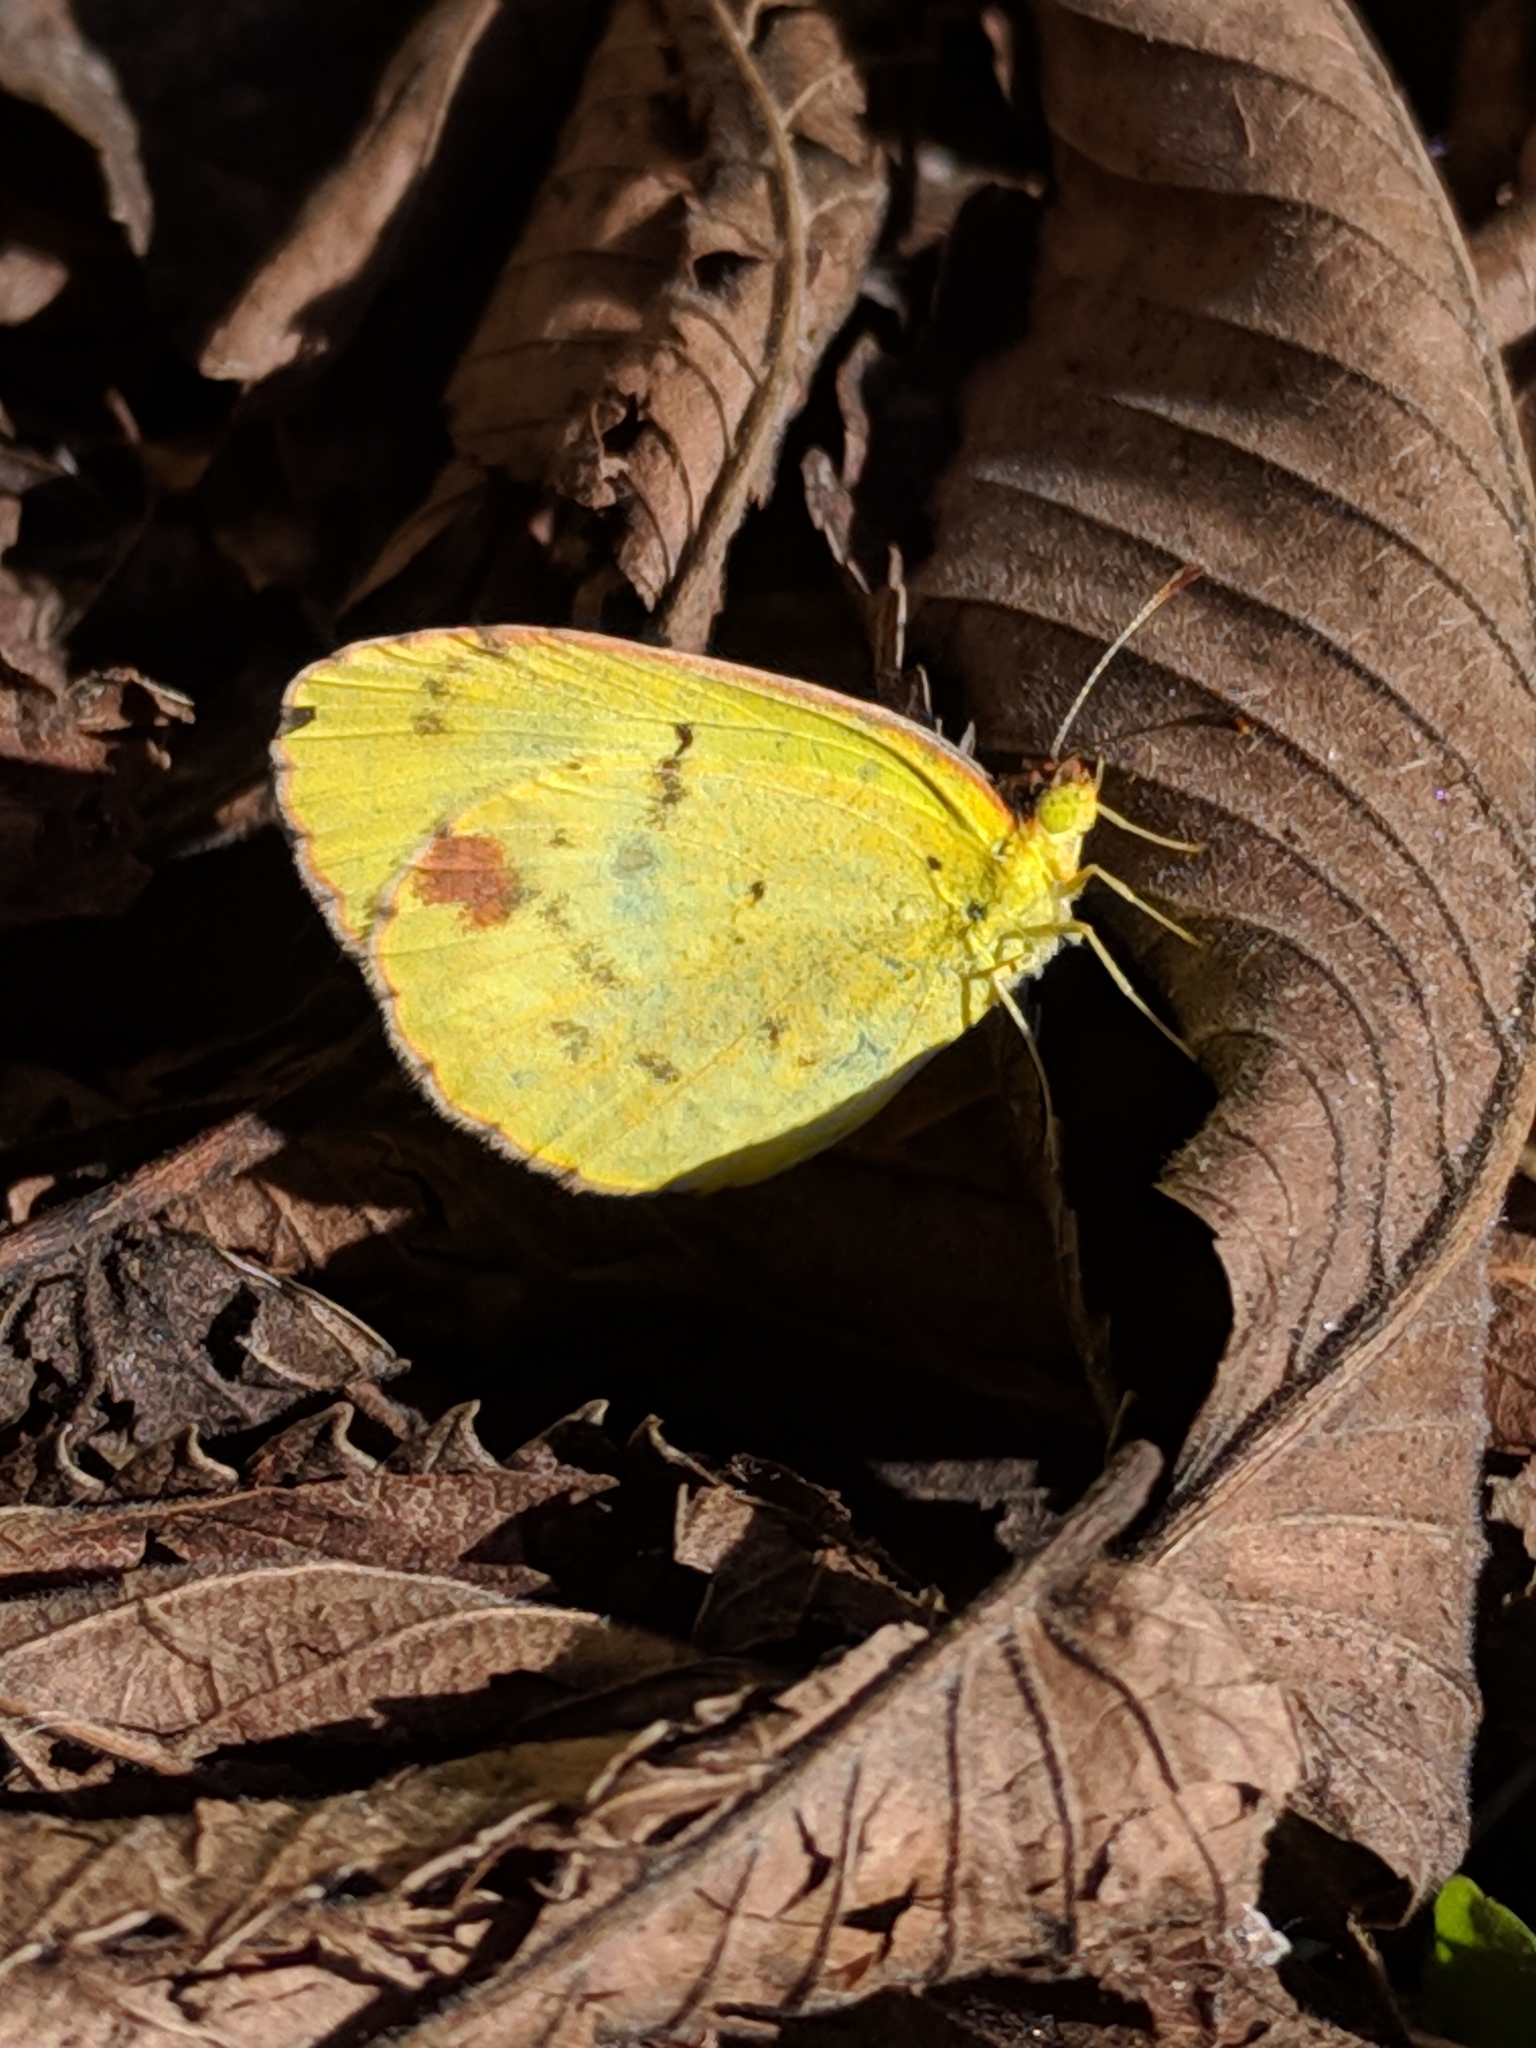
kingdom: Animalia
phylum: Arthropoda
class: Insecta
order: Lepidoptera
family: Pieridae
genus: Pyrisitia
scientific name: Pyrisitia lisa
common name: Little yellow
